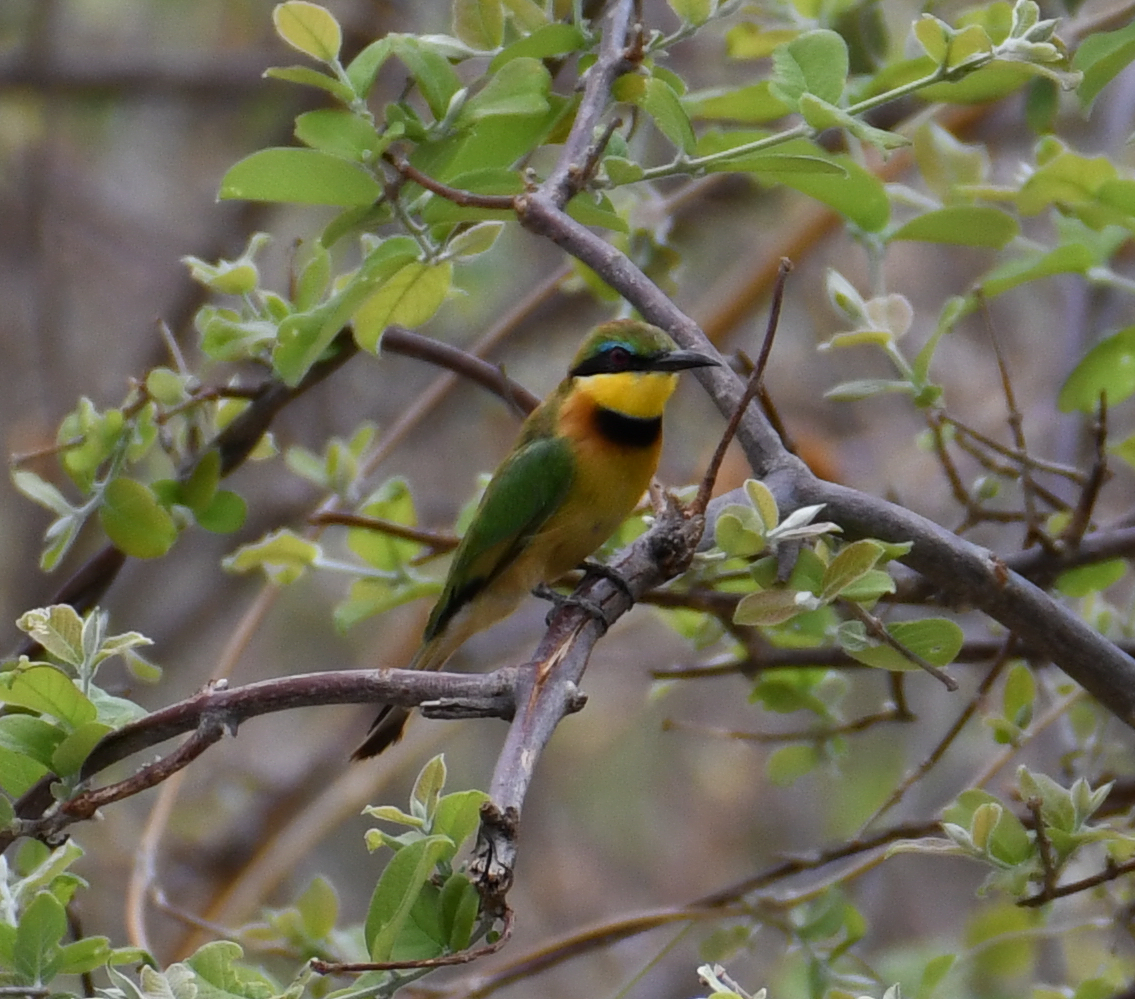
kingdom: Animalia
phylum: Chordata
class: Aves
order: Coraciiformes
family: Meropidae
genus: Merops
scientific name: Merops pusillus
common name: Little bee-eater
